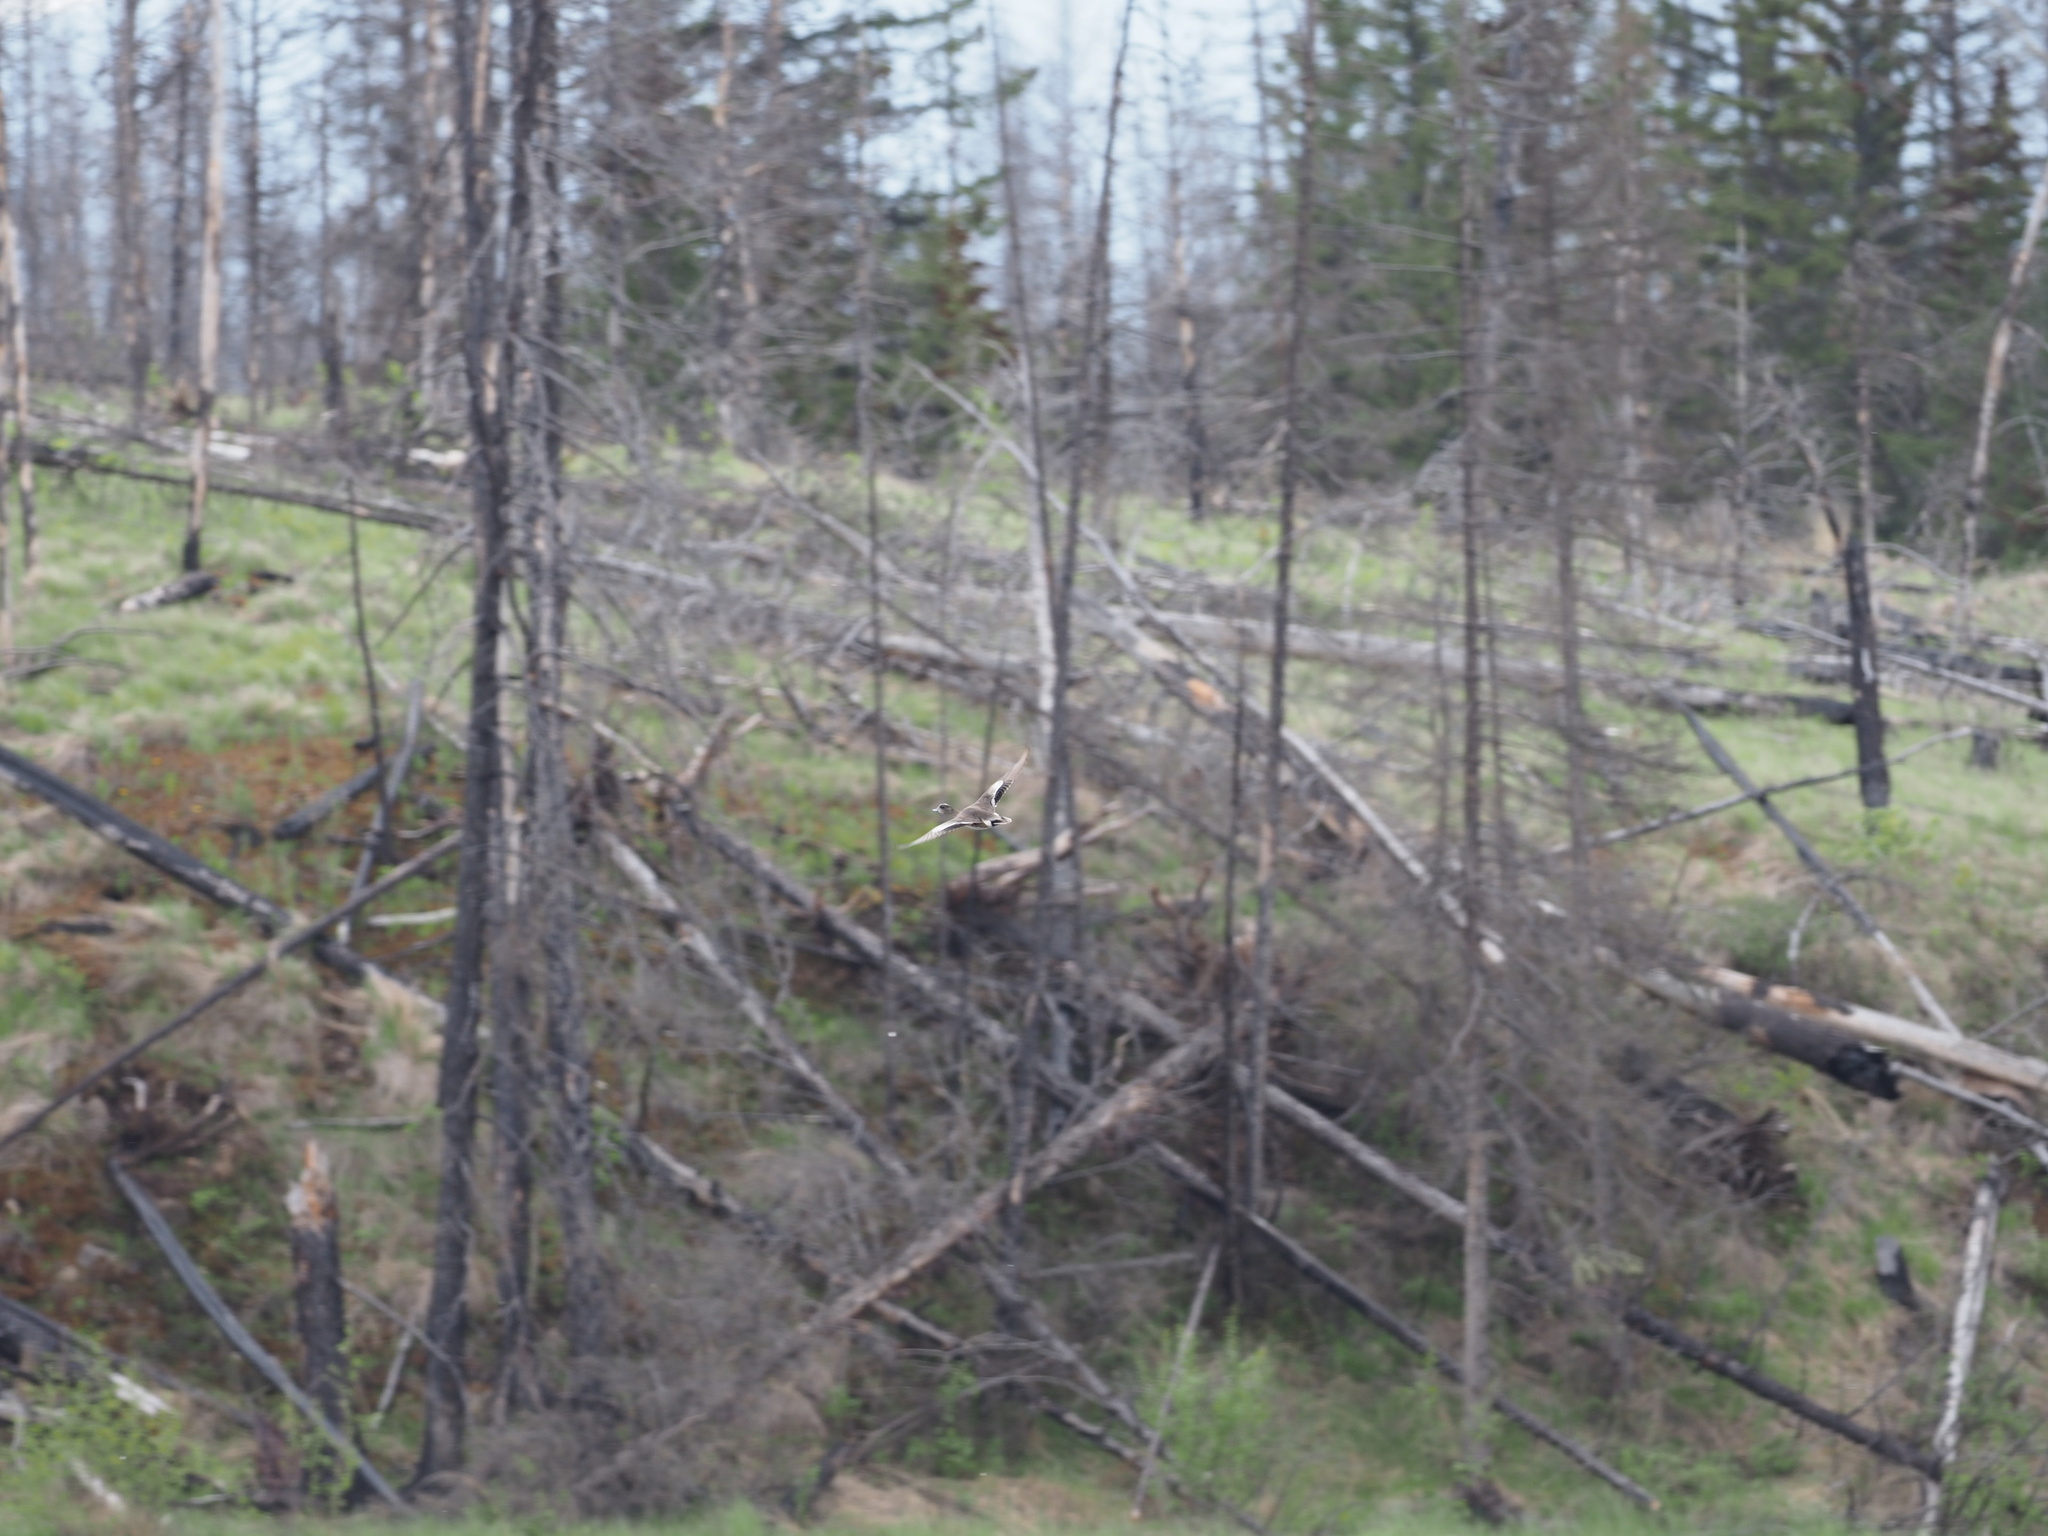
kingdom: Animalia
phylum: Chordata
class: Aves
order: Anseriformes
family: Anatidae
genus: Mareca
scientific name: Mareca americana
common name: American wigeon
